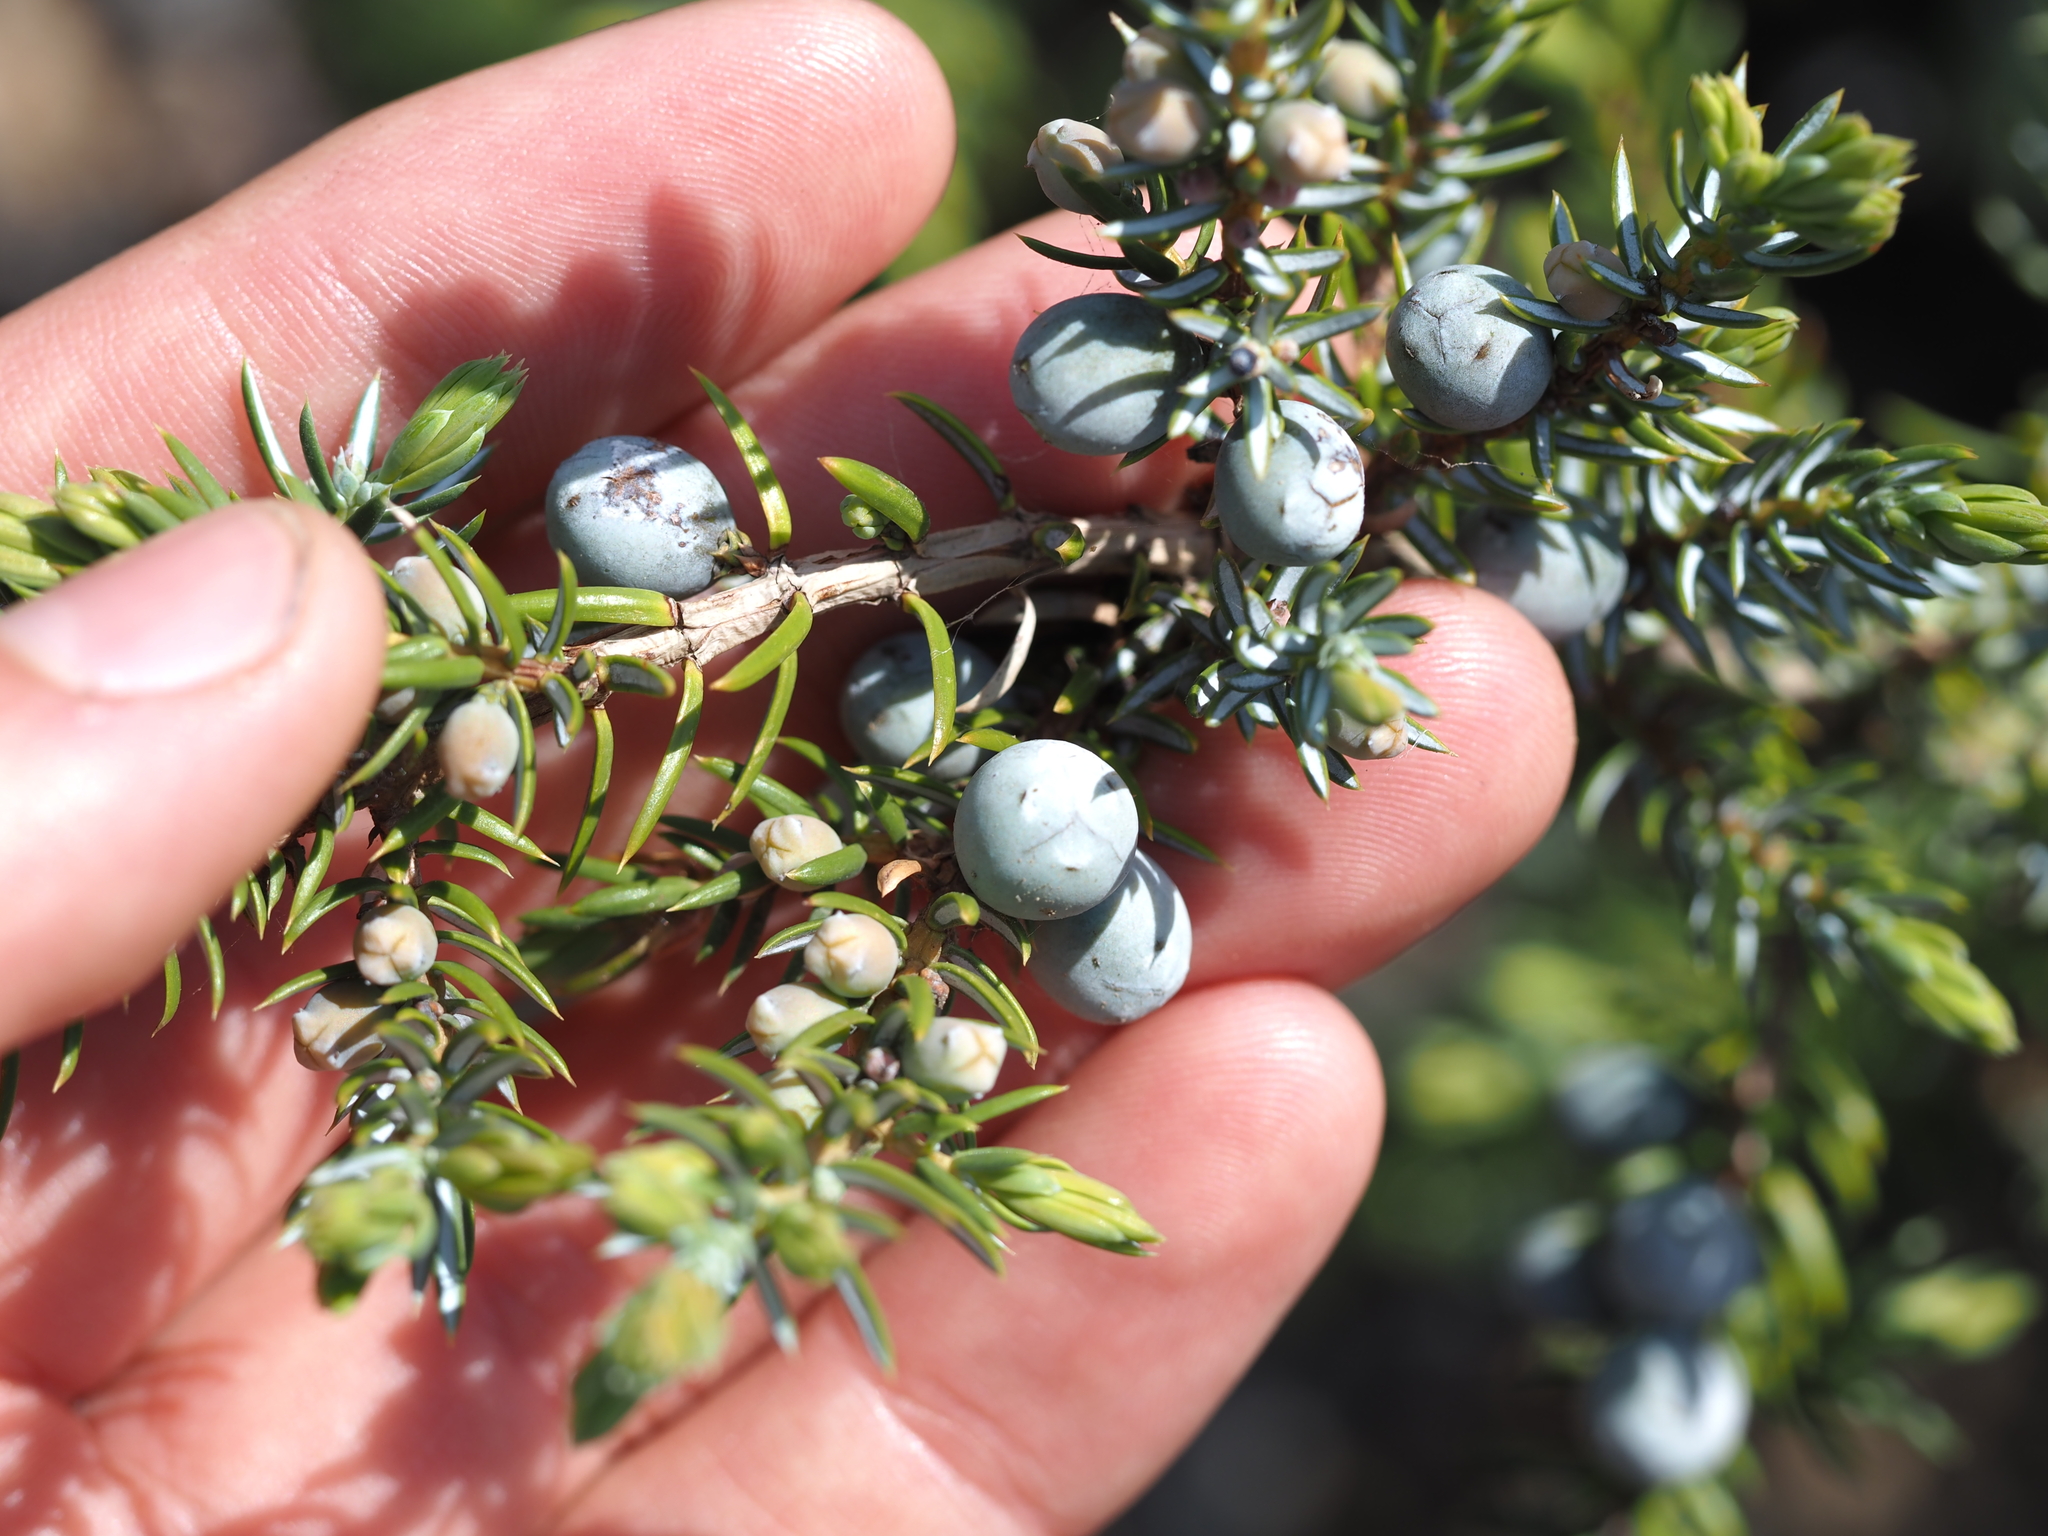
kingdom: Plantae
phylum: Tracheophyta
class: Pinopsida
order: Pinales
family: Cupressaceae
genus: Juniperus
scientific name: Juniperus communis
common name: Common juniper
